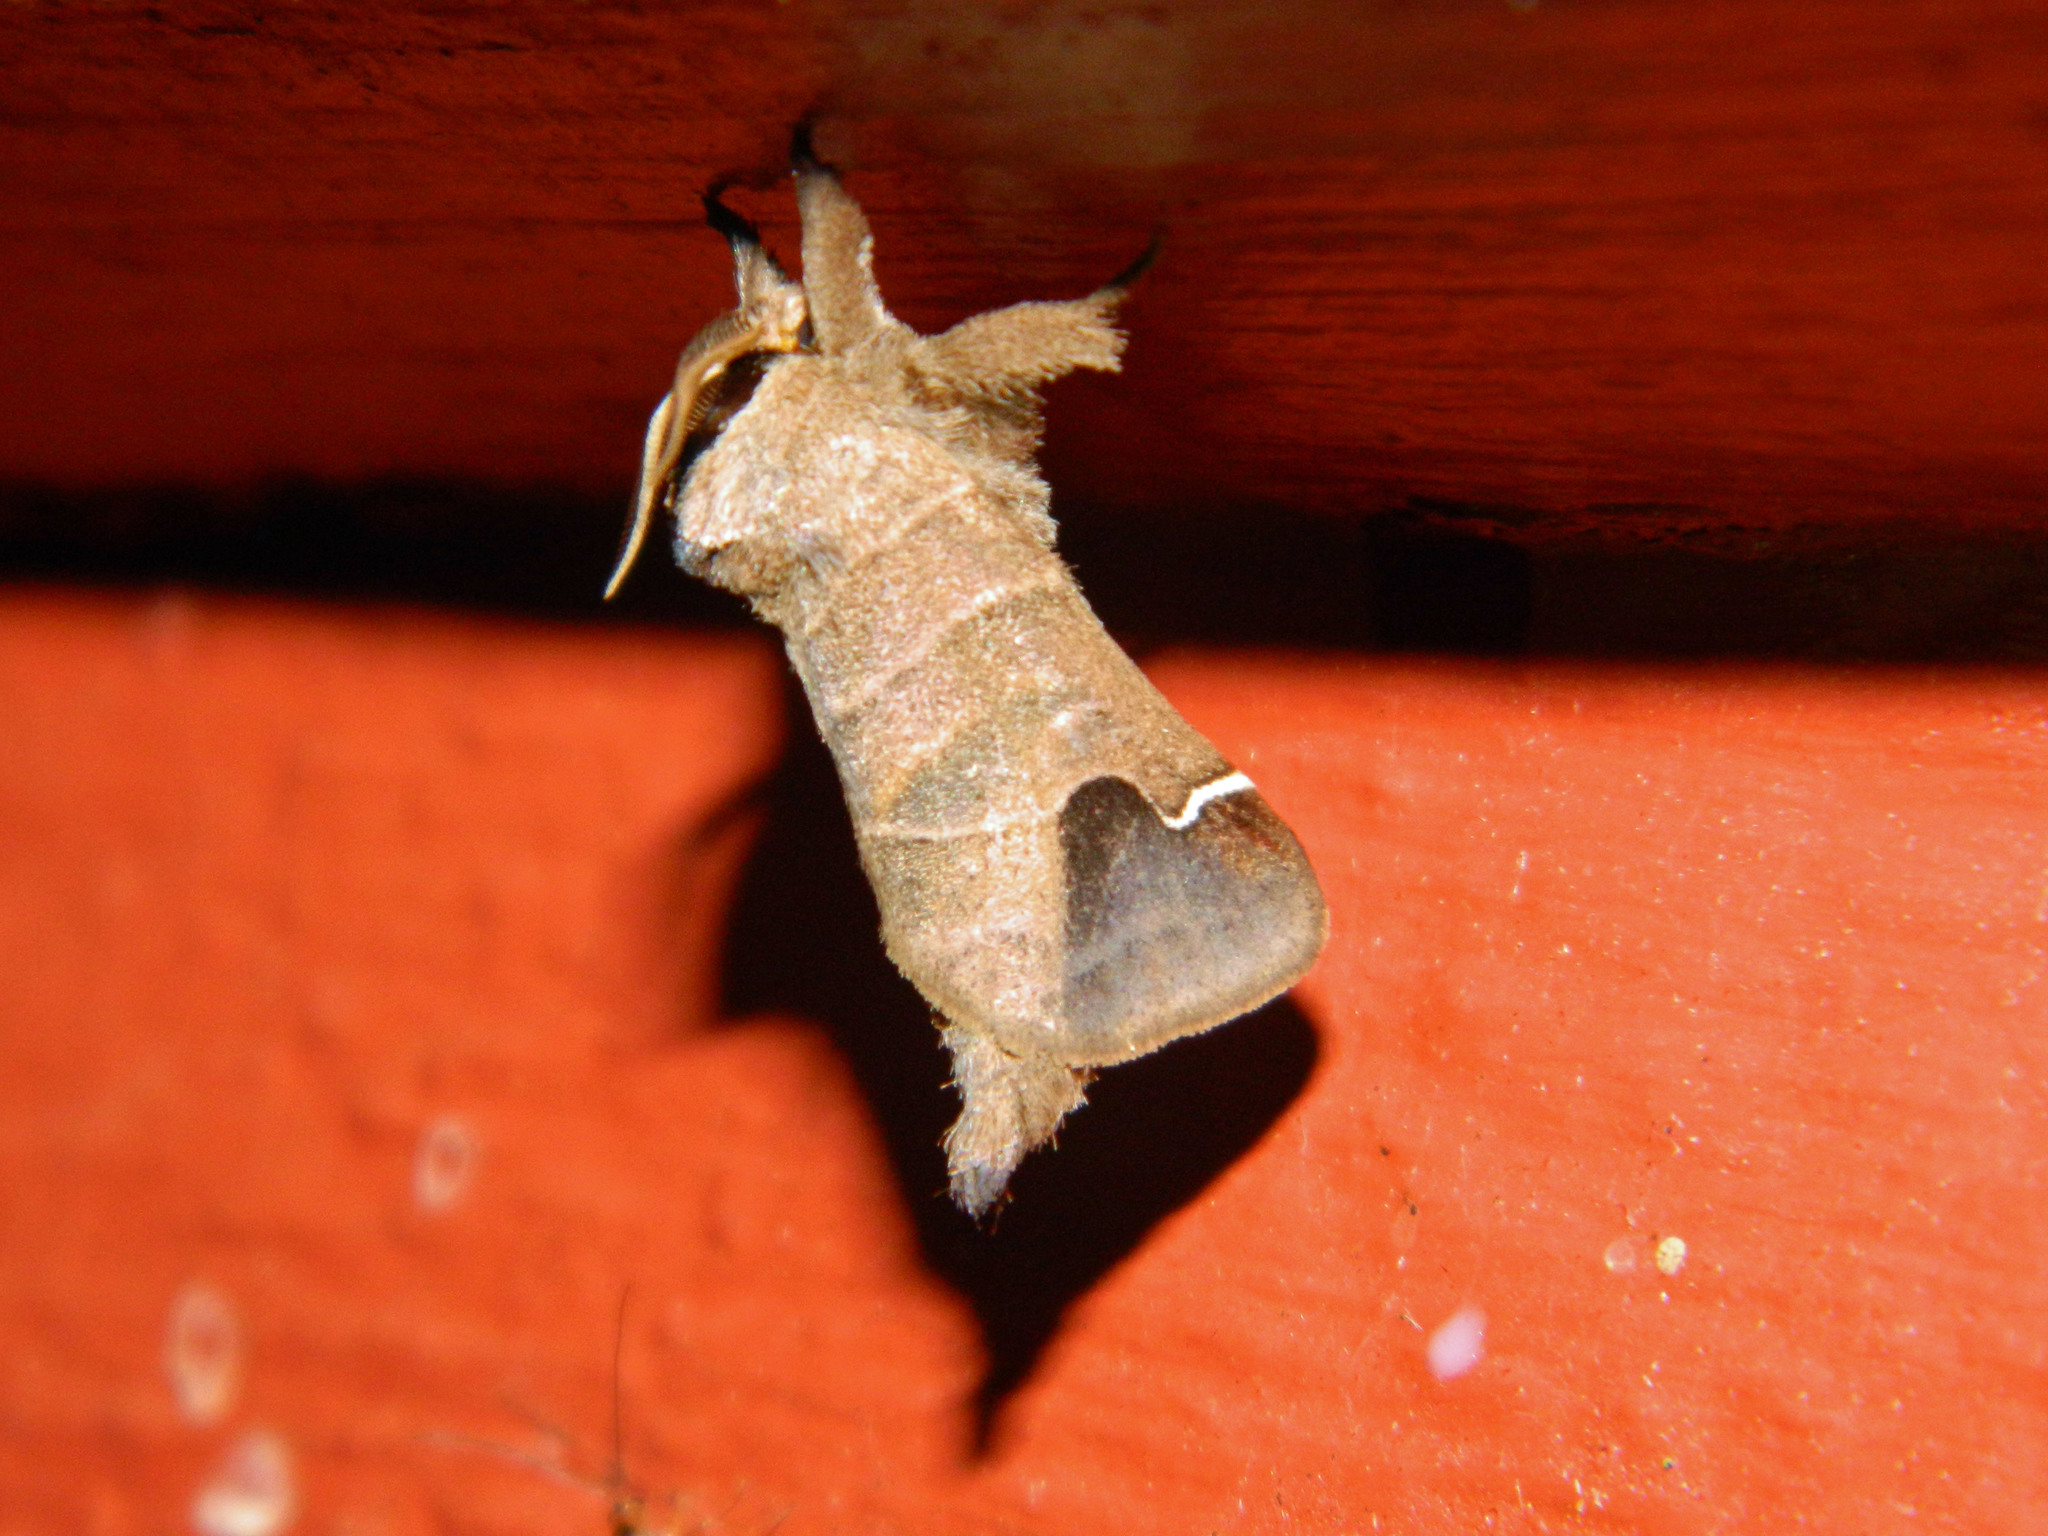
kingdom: Animalia
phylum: Arthropoda
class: Insecta
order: Lepidoptera
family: Notodontidae
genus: Clostera
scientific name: Clostera albosigma
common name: Sigmoid prominent
